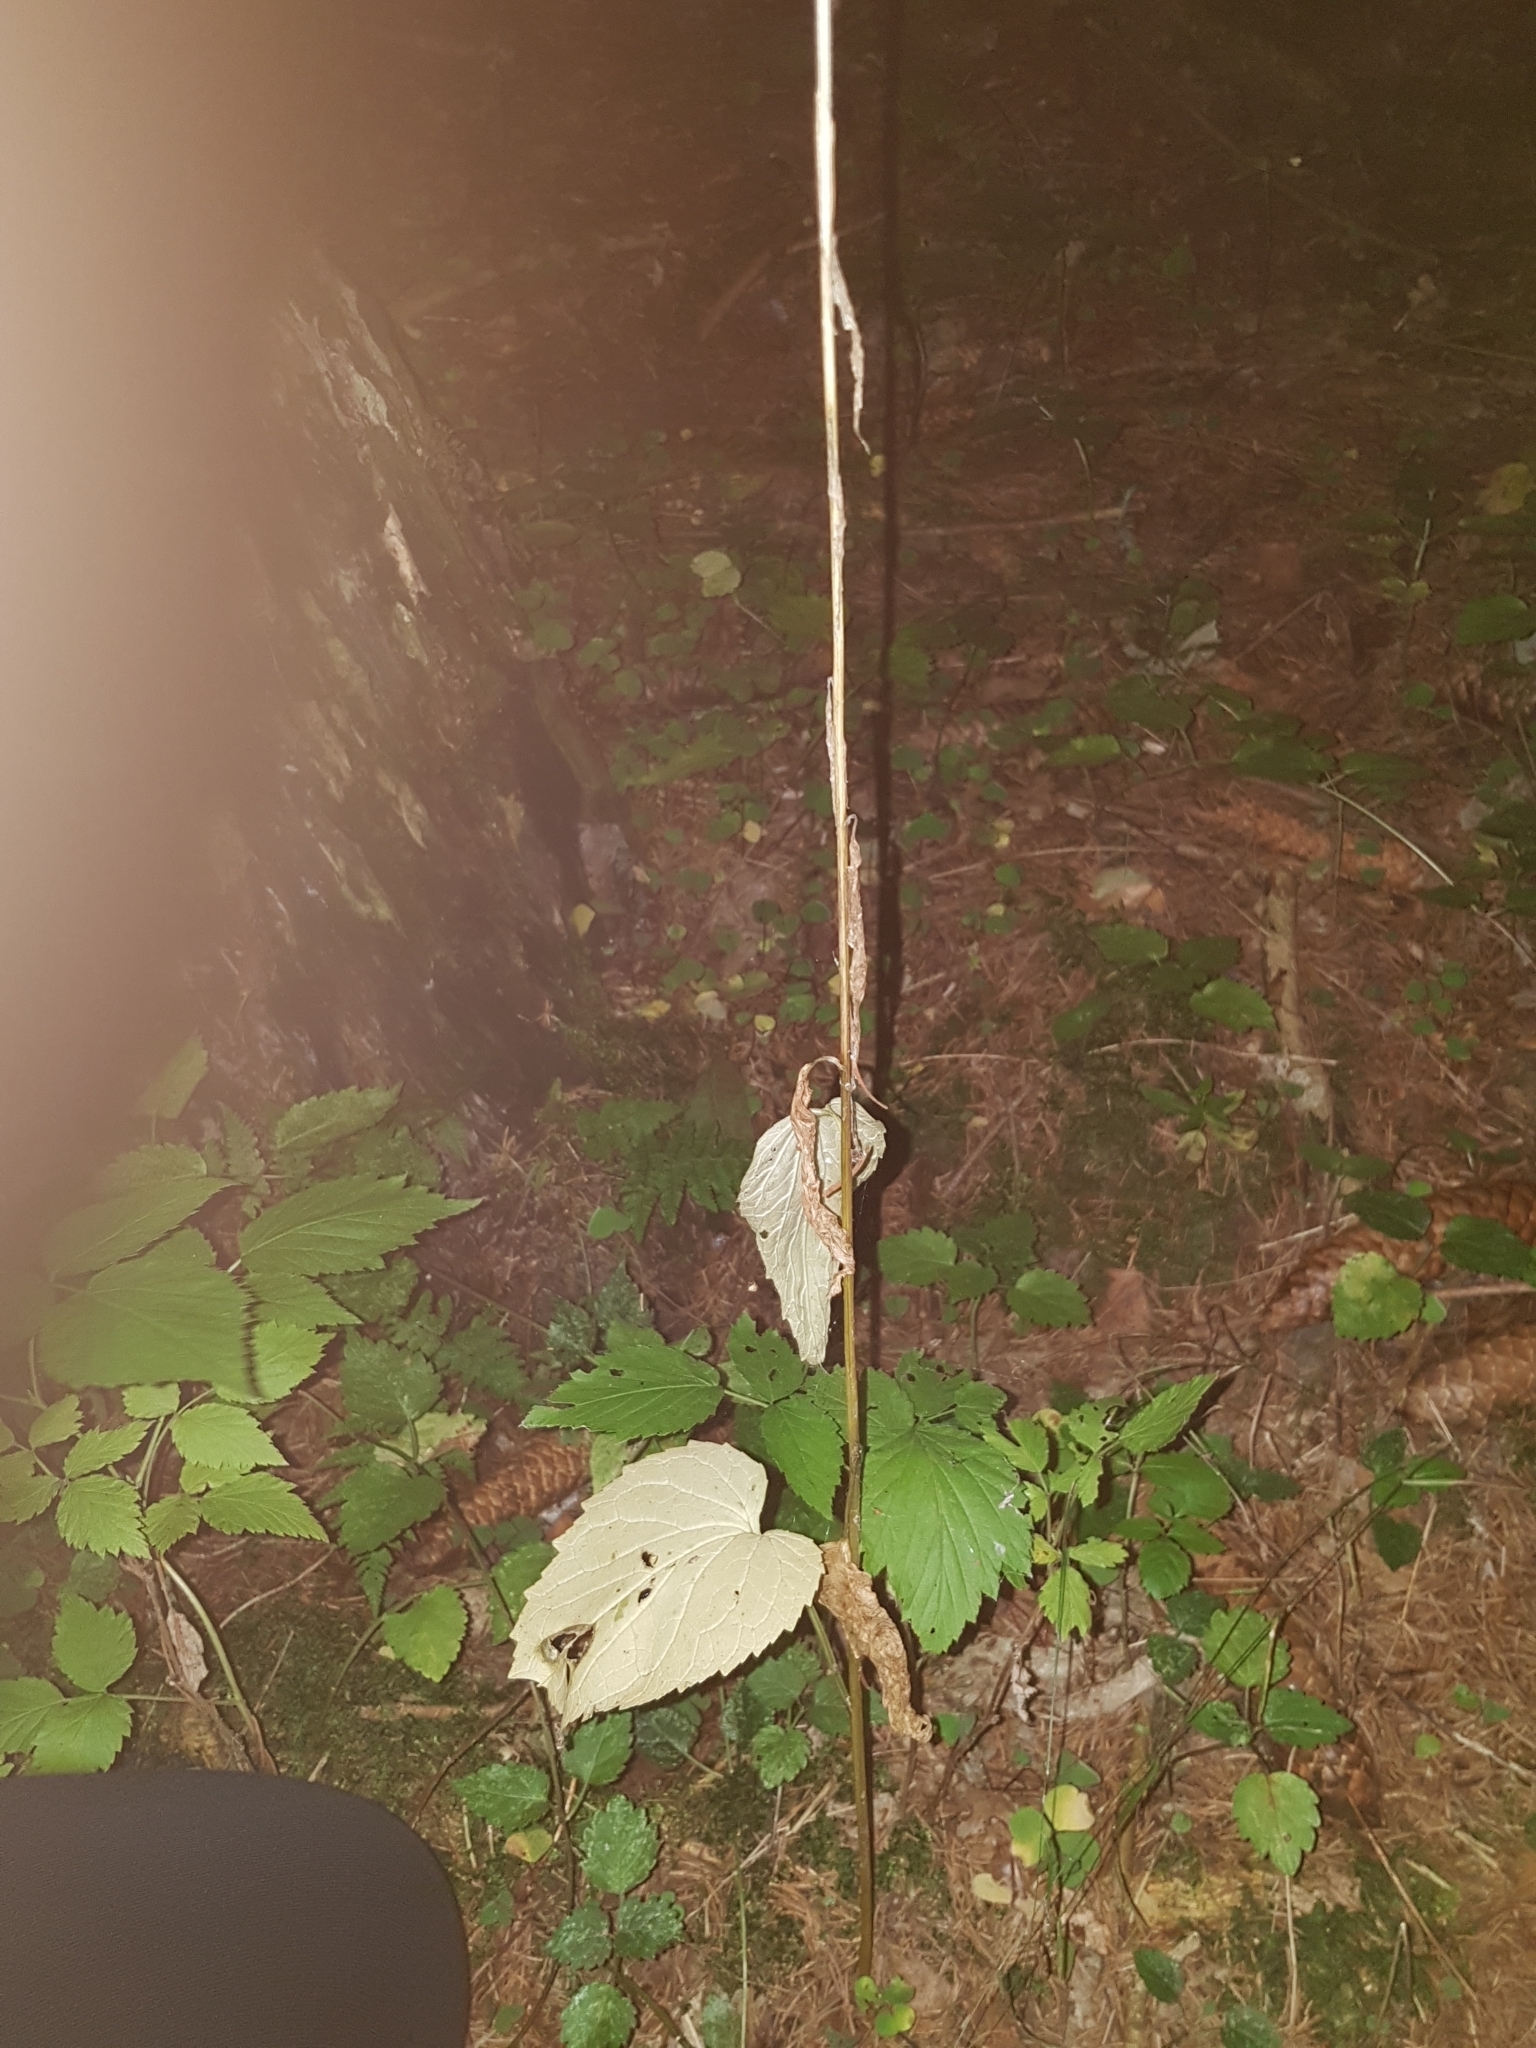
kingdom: Plantae
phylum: Tracheophyta
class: Magnoliopsida
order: Asterales
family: Campanulaceae
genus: Phyteuma
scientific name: Phyteuma spicatum
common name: Spiked rampion
